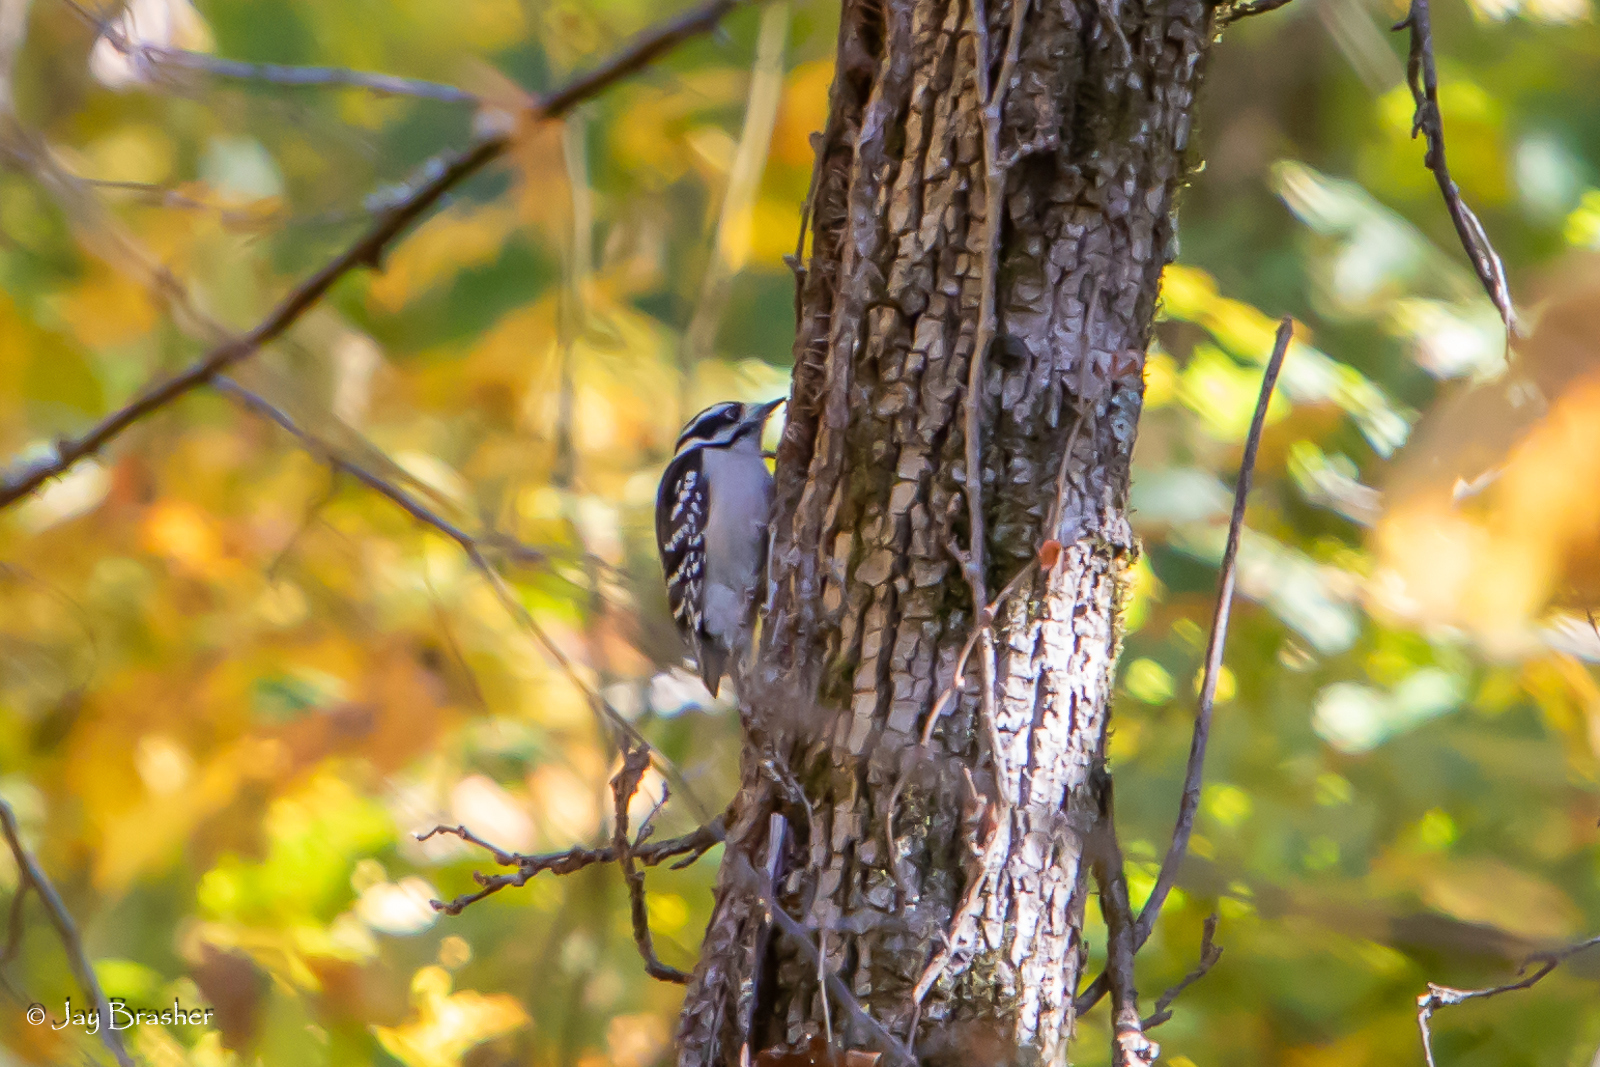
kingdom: Animalia
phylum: Chordata
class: Aves
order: Piciformes
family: Picidae
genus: Dryobates
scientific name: Dryobates pubescens
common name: Downy woodpecker
